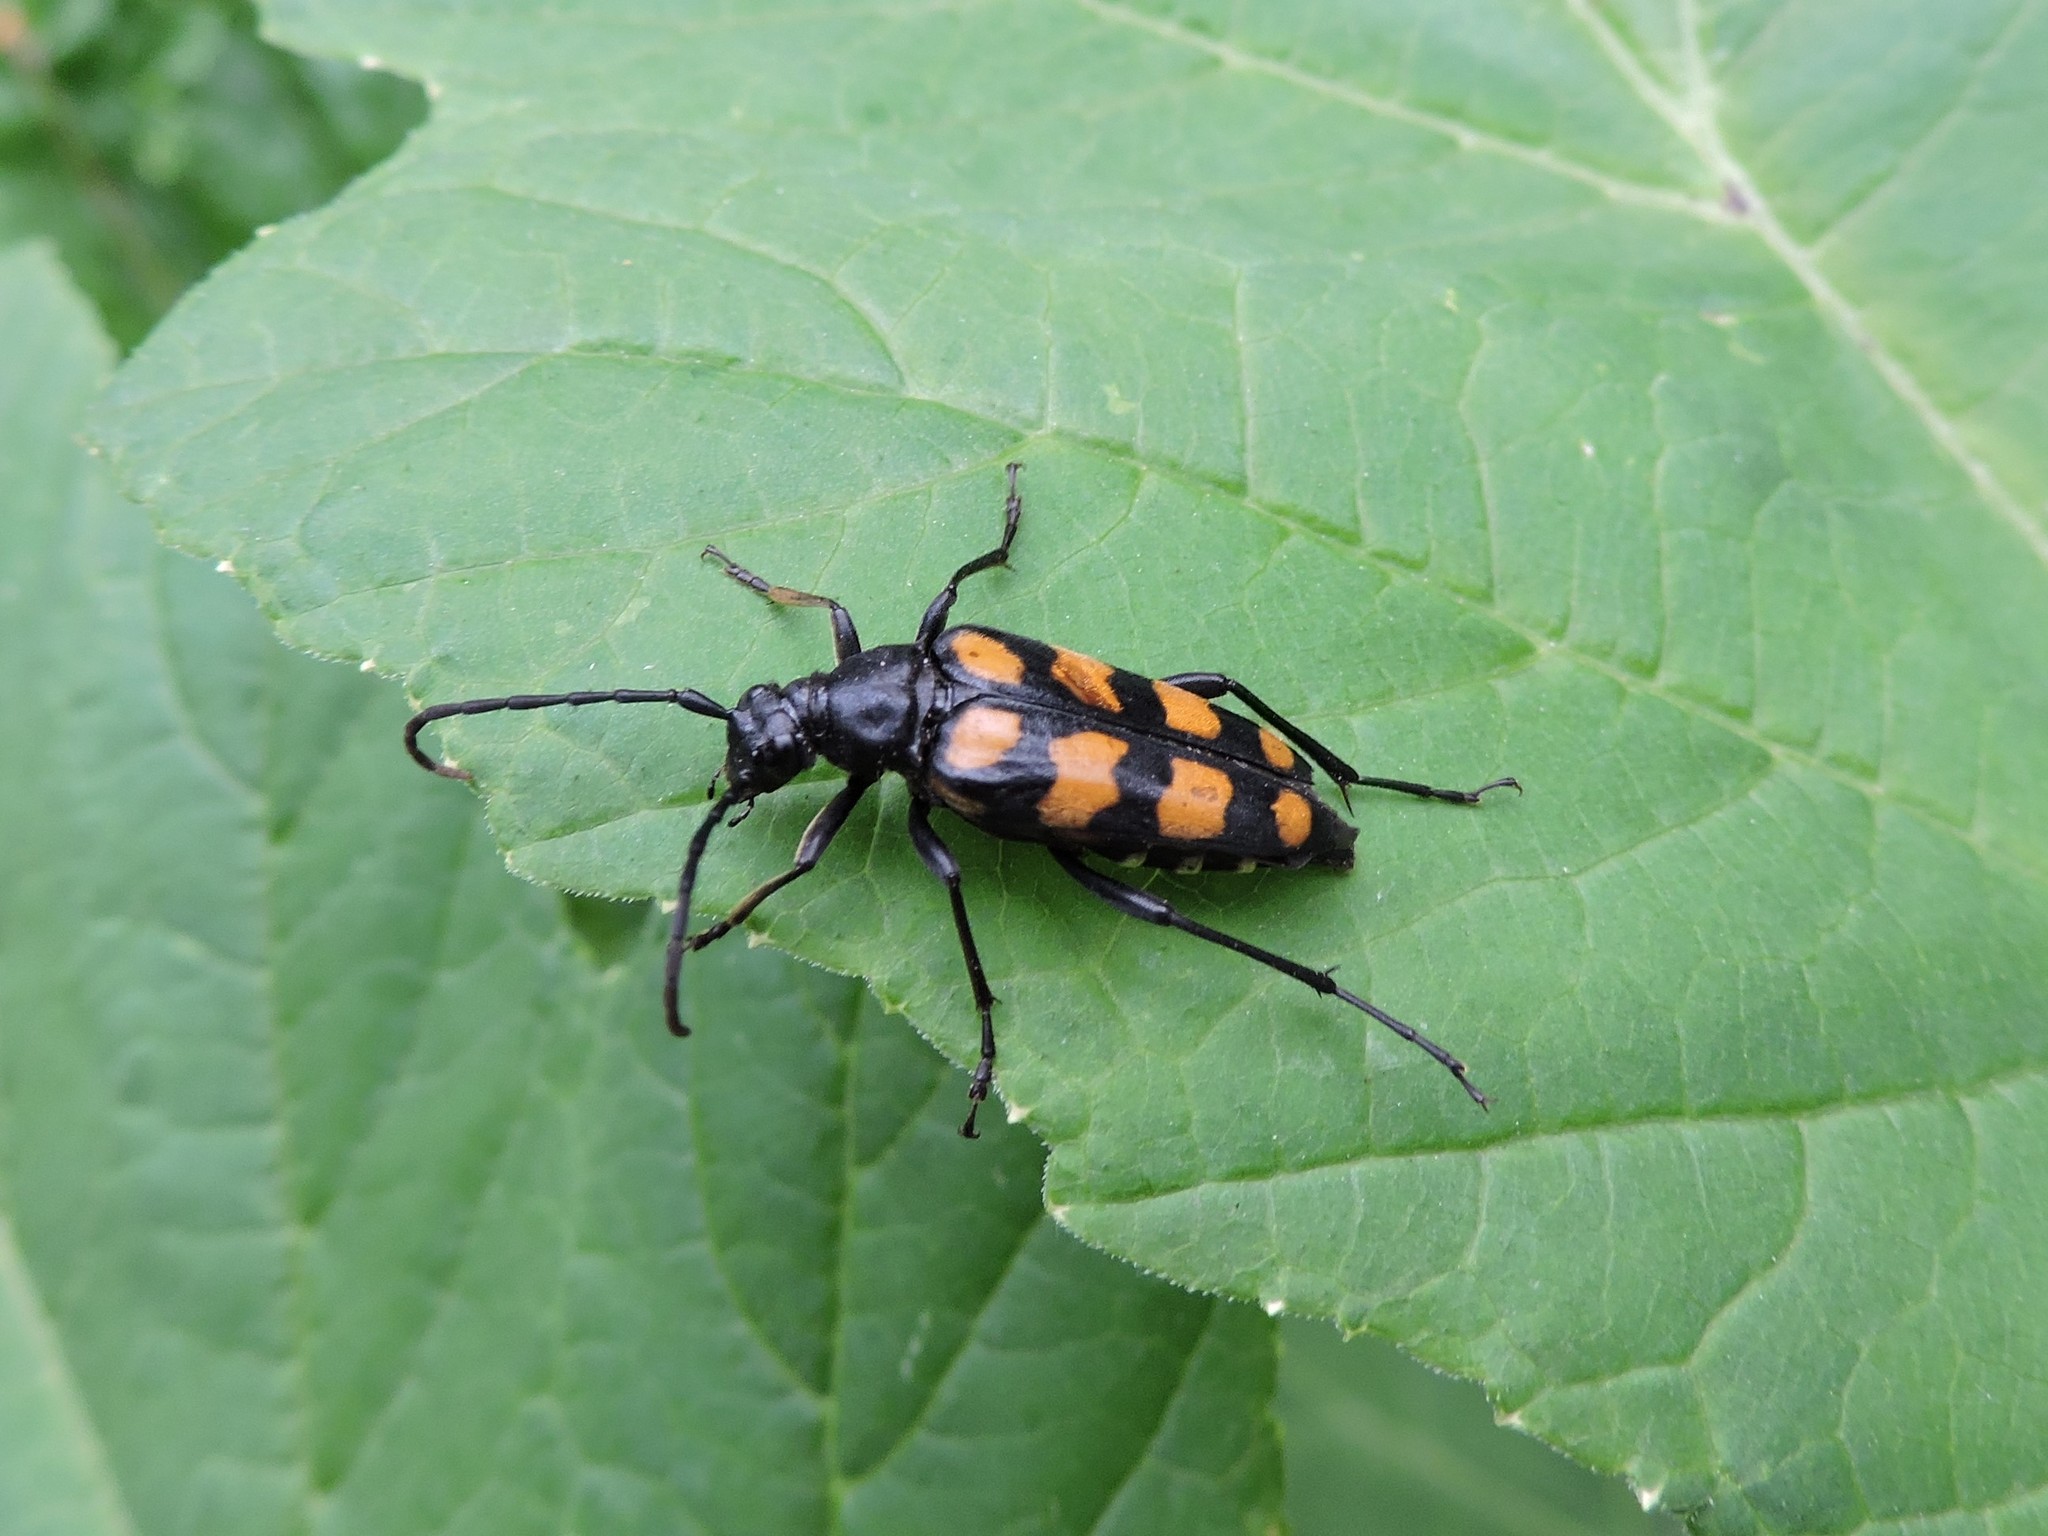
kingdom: Animalia
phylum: Arthropoda
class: Insecta
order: Coleoptera
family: Cerambycidae
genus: Leptura
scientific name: Leptura quadrifasciata
